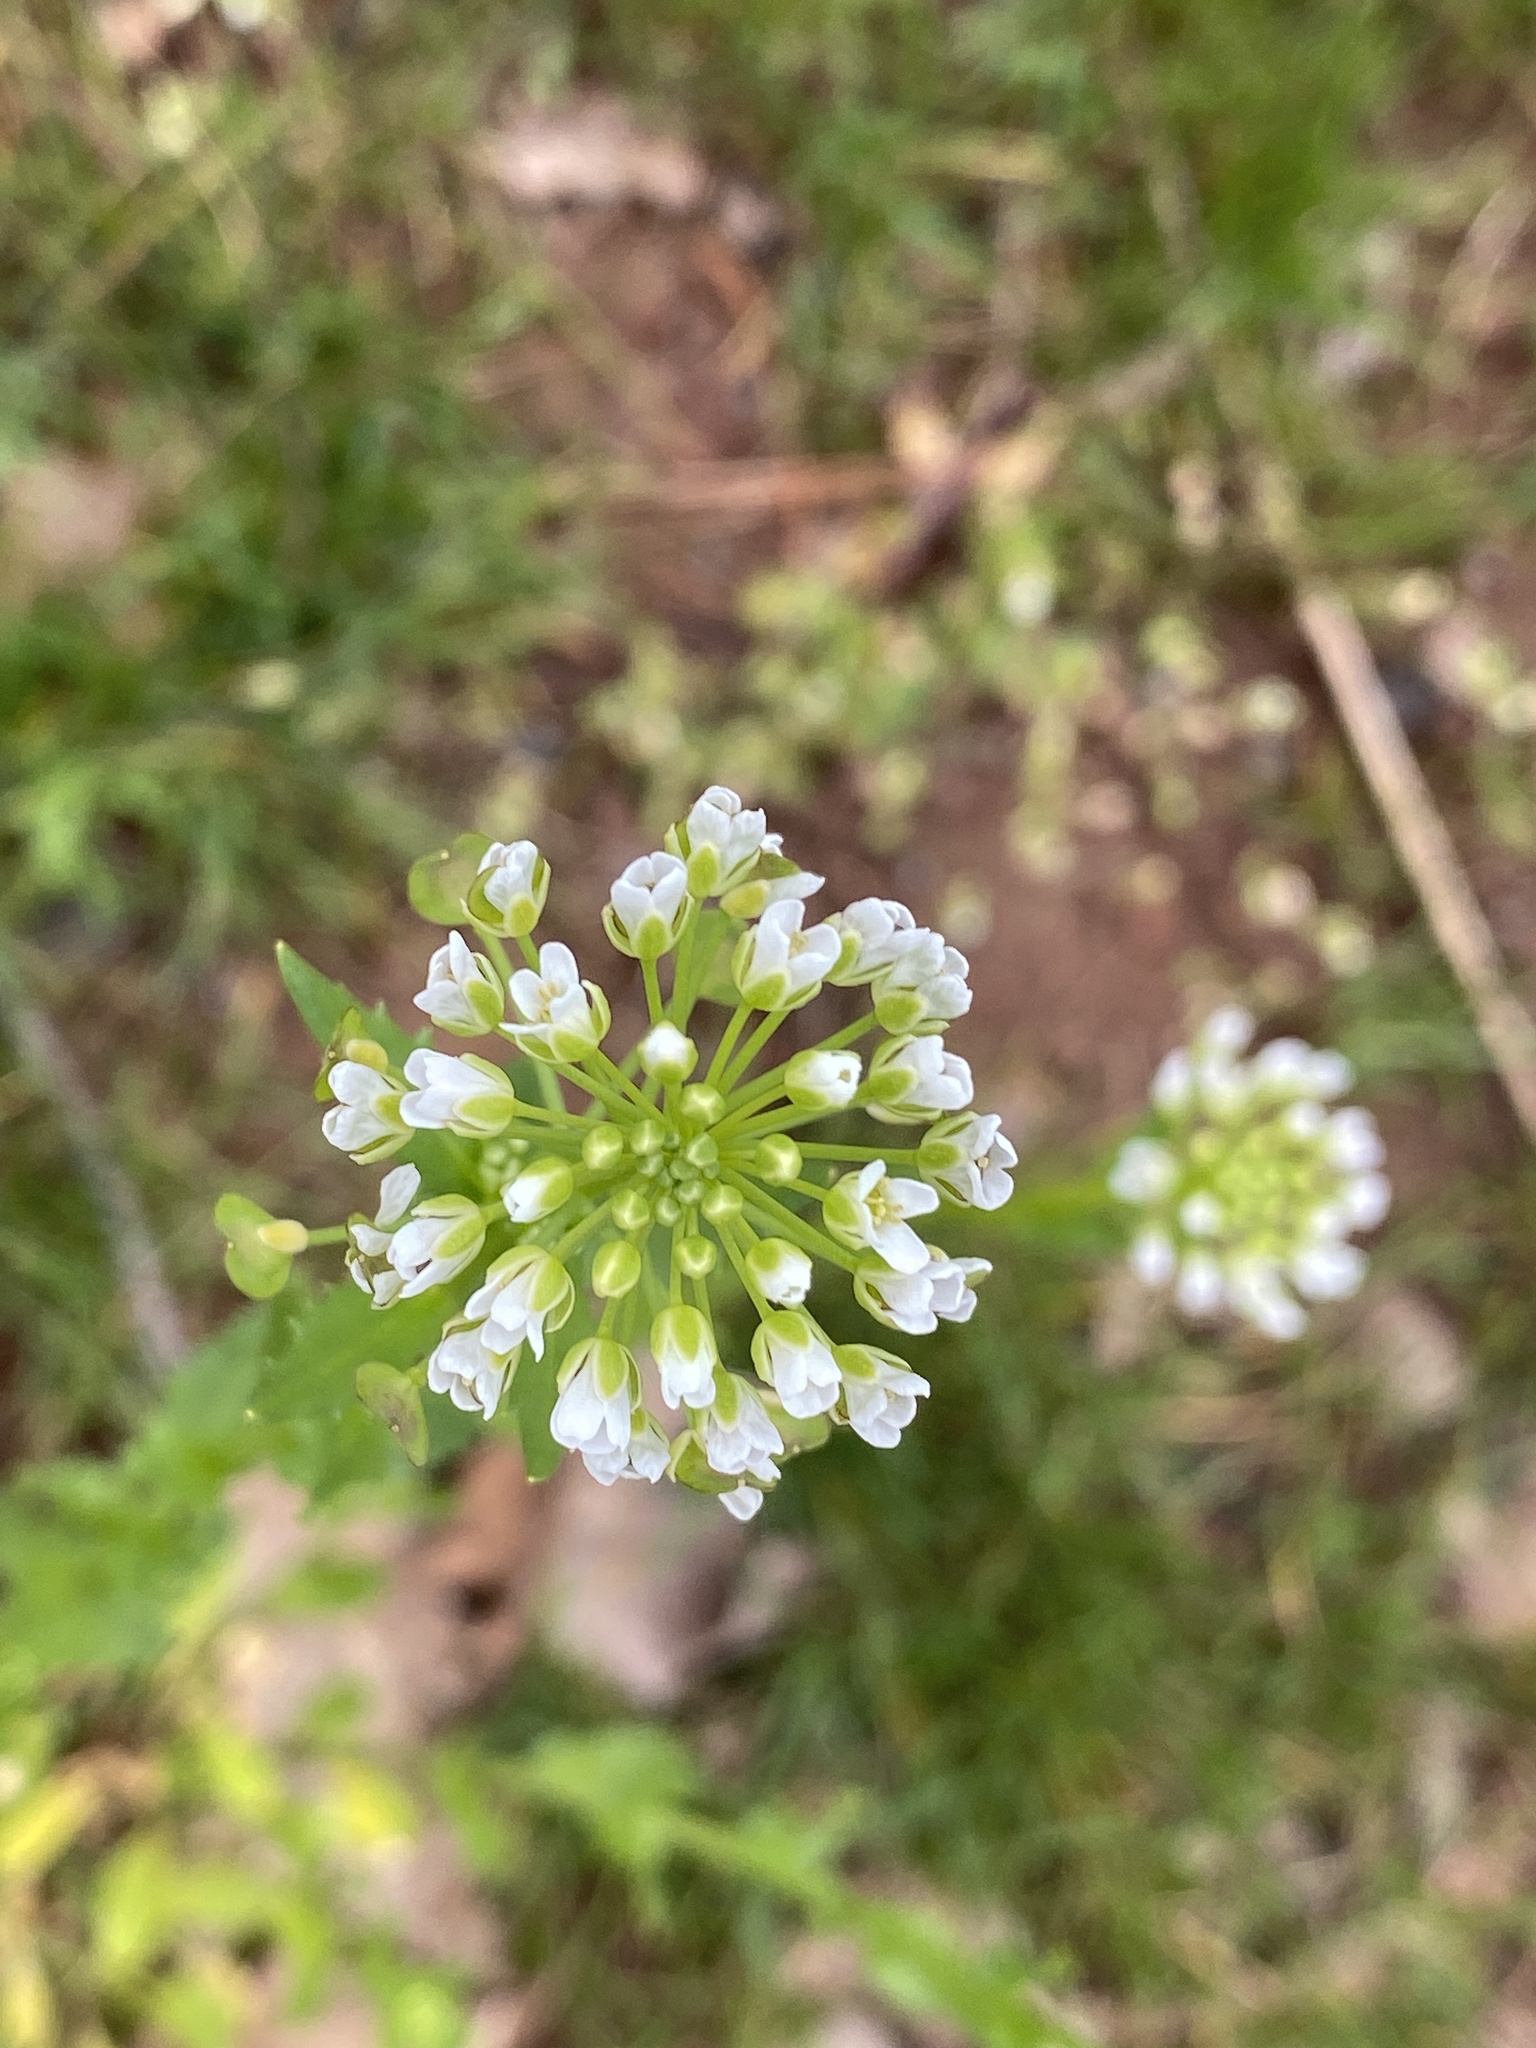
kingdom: Plantae
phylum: Tracheophyta
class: Magnoliopsida
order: Brassicales
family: Brassicaceae
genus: Thlaspi
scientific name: Thlaspi arvense
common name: Field pennycress
